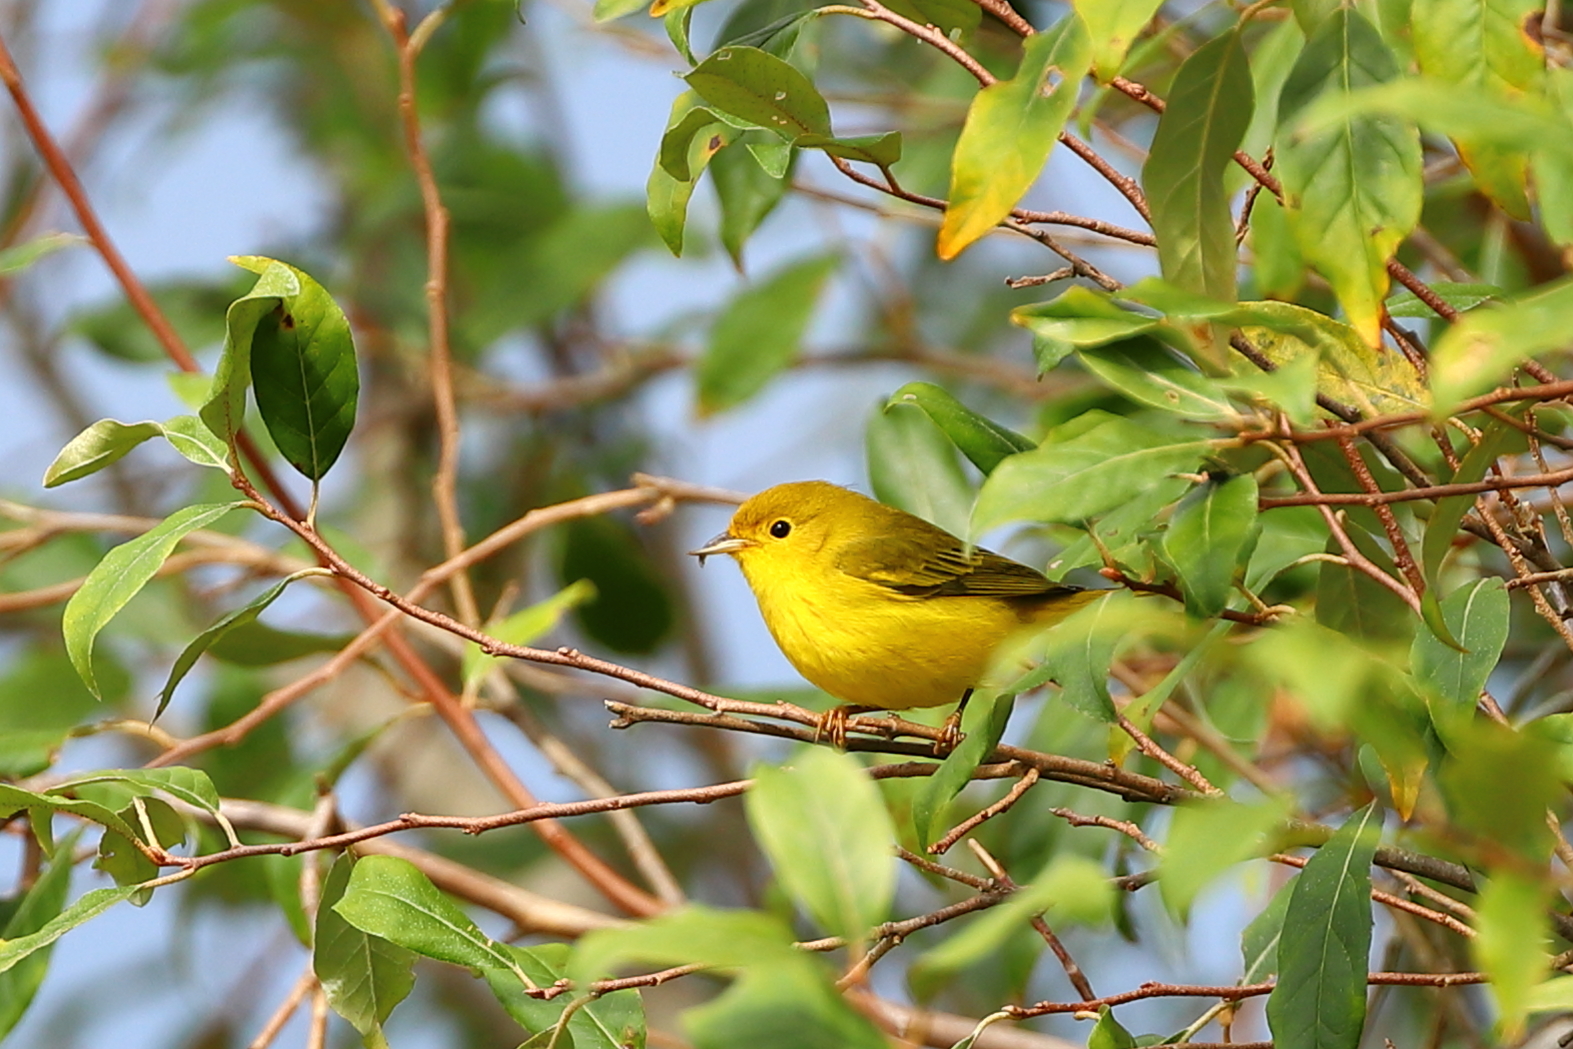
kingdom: Animalia
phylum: Chordata
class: Aves
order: Passeriformes
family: Parulidae
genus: Setophaga
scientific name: Setophaga petechia
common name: Yellow warbler
